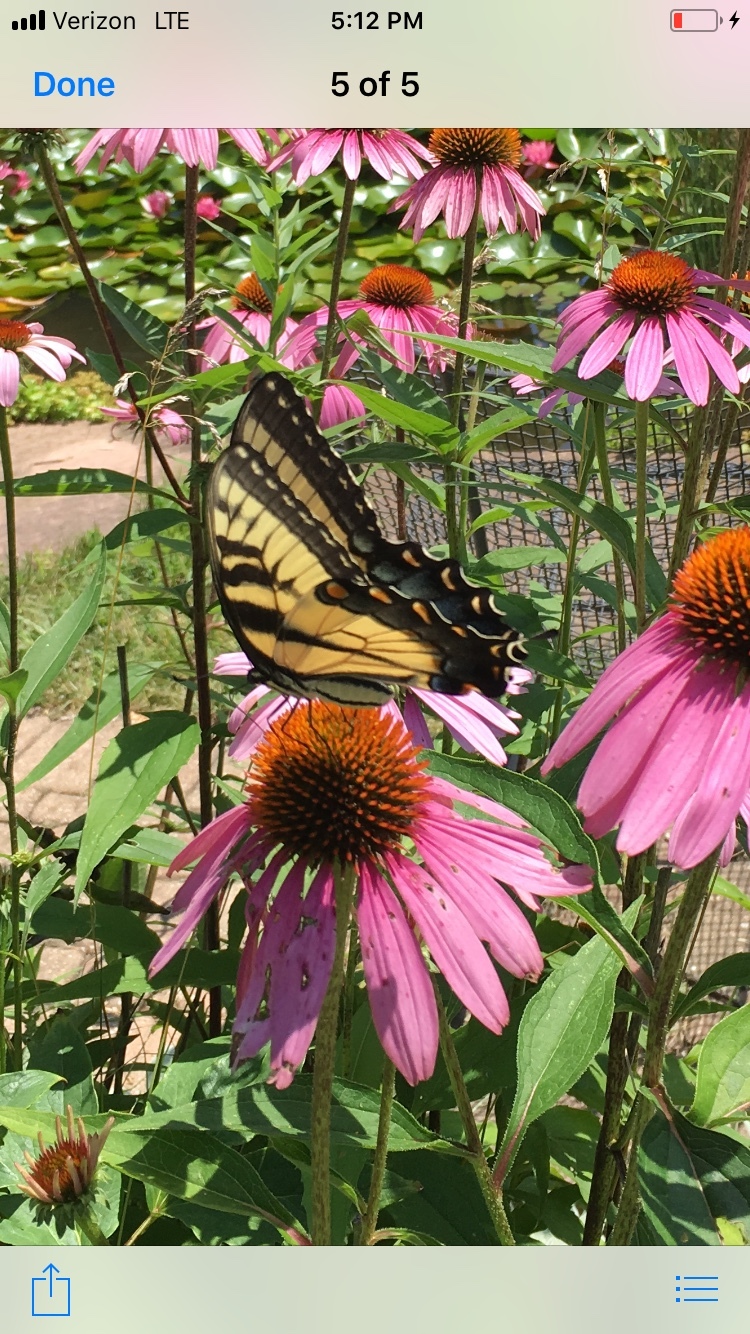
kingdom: Animalia
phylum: Arthropoda
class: Insecta
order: Lepidoptera
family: Papilionidae
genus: Papilio
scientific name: Papilio glaucus
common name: Tiger swallowtail
